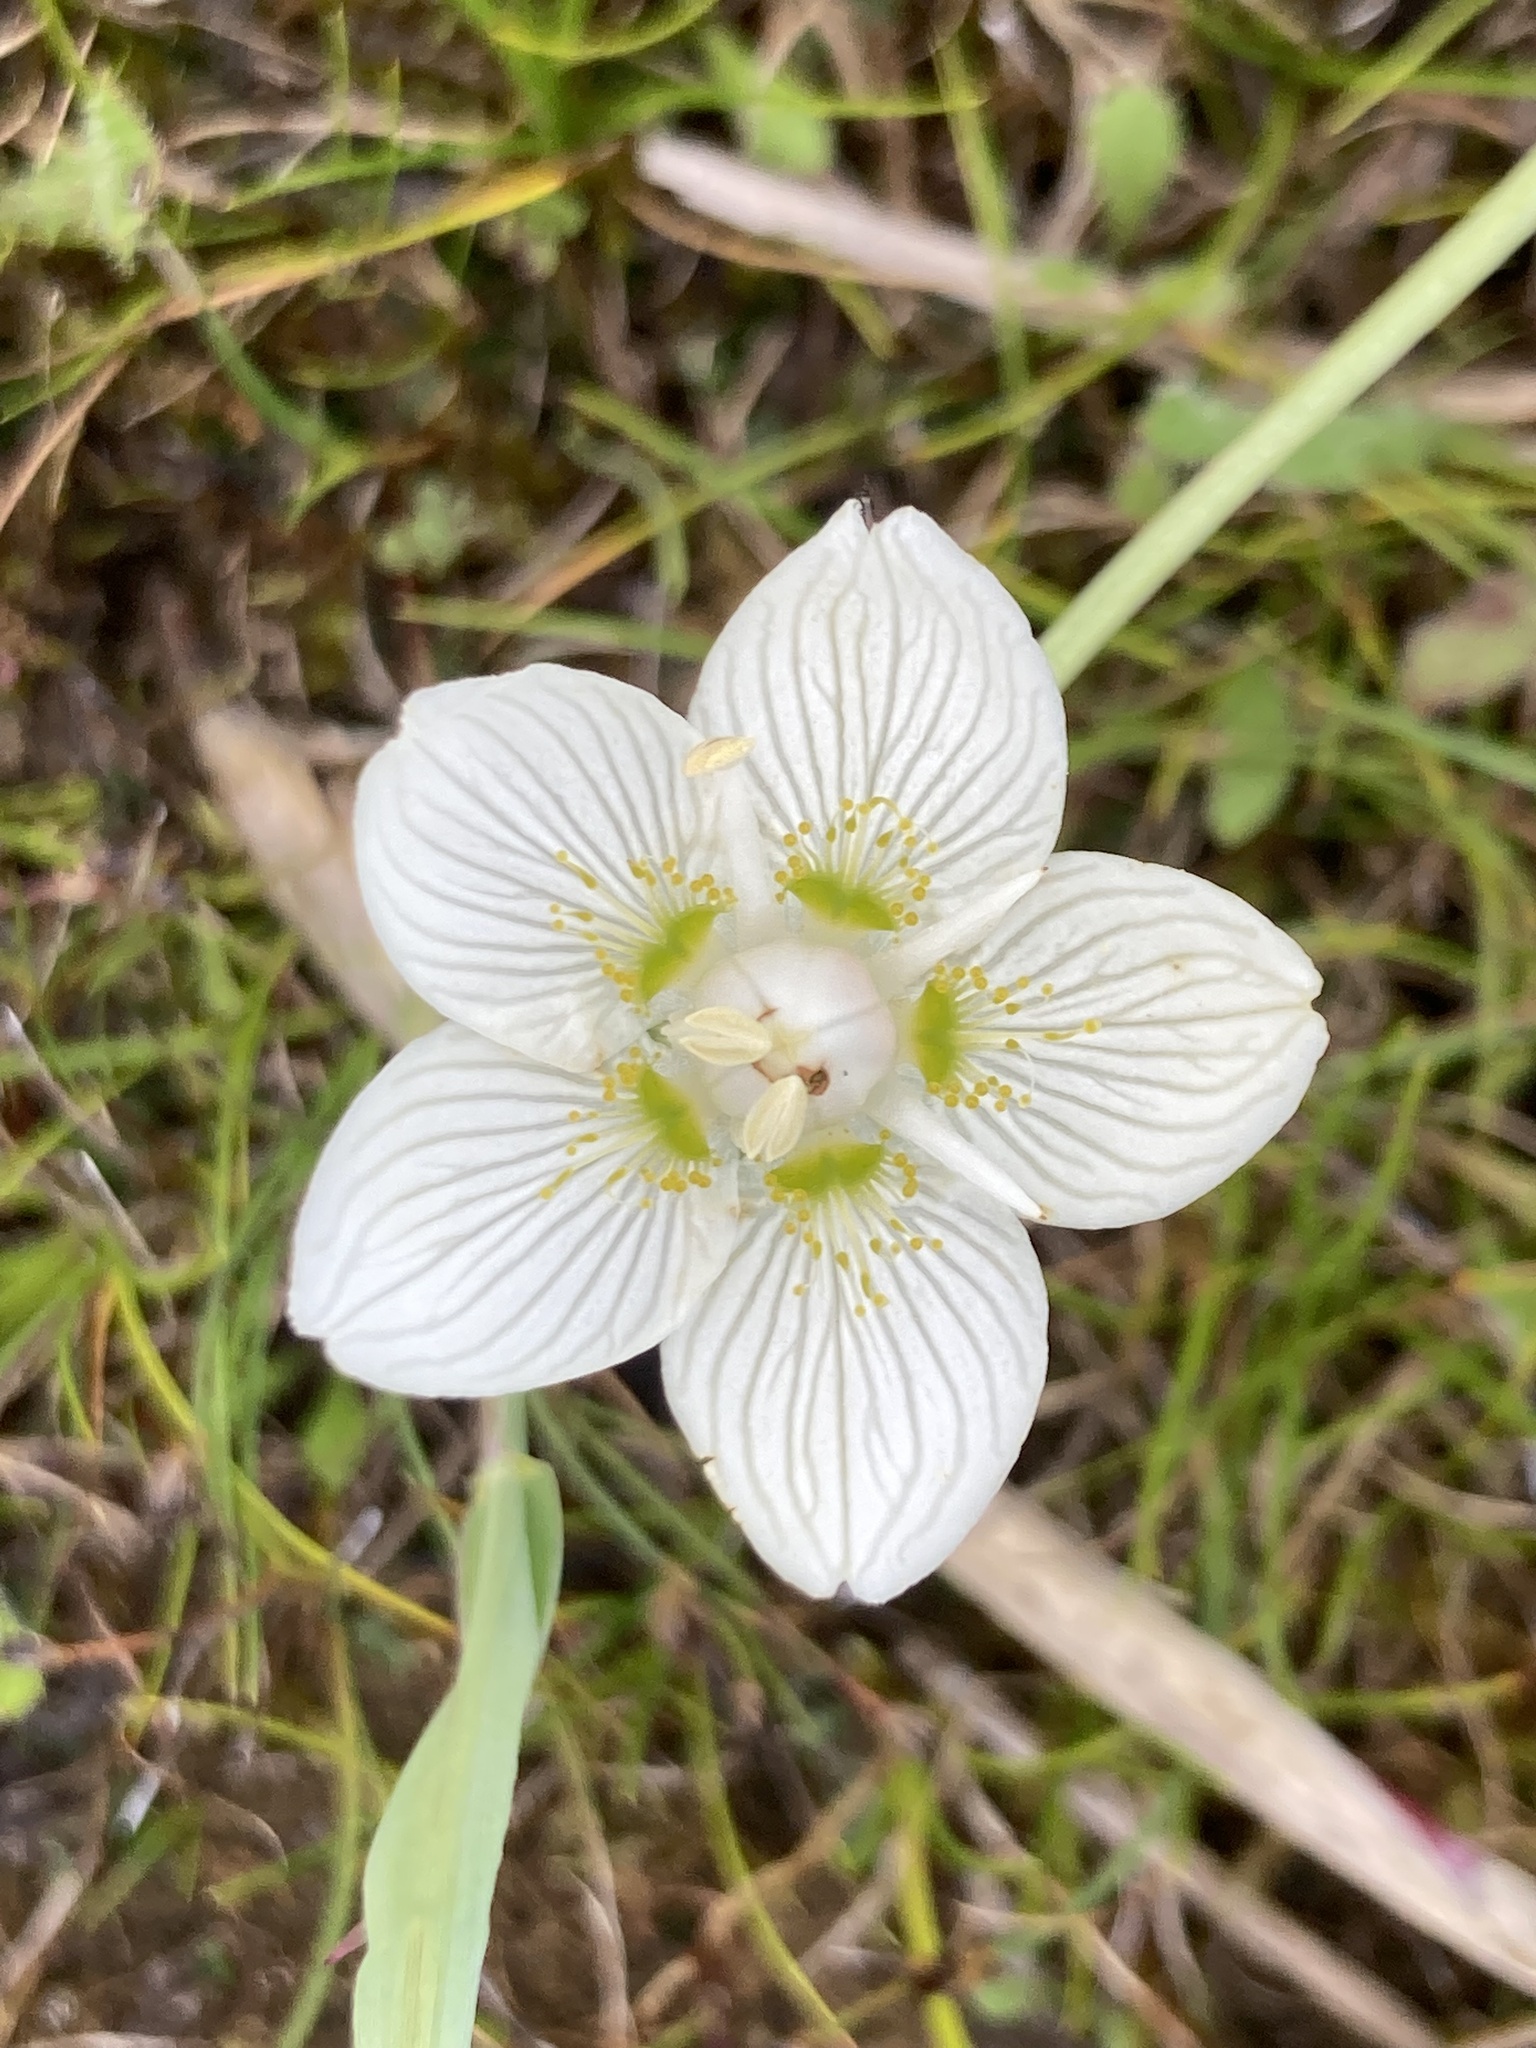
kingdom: Plantae
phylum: Tracheophyta
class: Magnoliopsida
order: Celastrales
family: Parnassiaceae
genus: Parnassia
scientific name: Parnassia palustris
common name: Grass-of-parnassus
